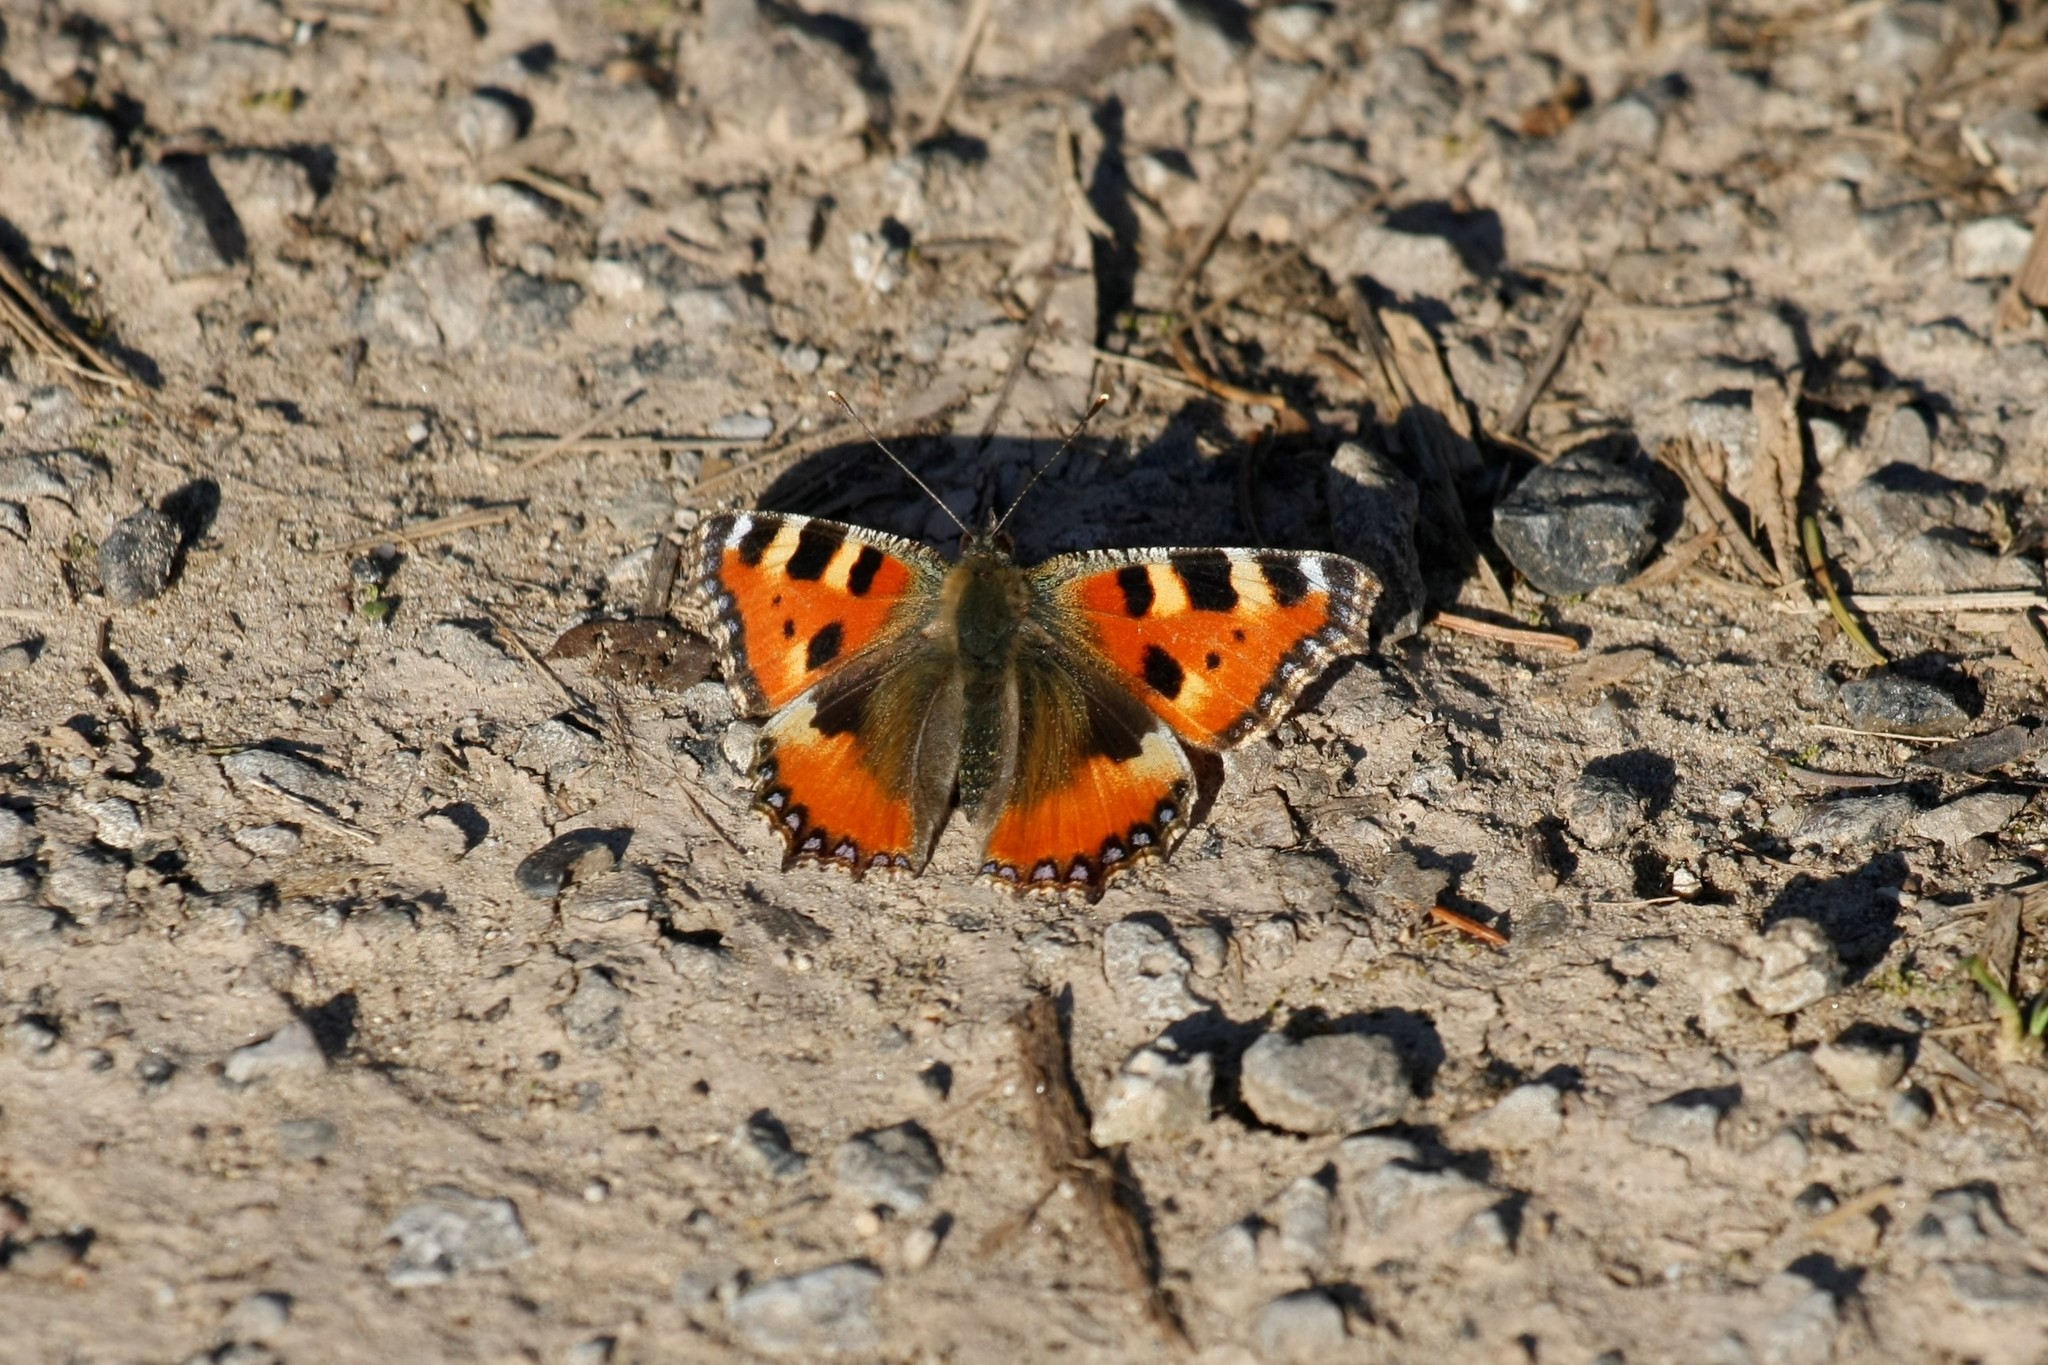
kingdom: Animalia
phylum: Arthropoda
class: Insecta
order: Lepidoptera
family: Nymphalidae
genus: Aglais
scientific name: Aglais urticae
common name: Small tortoiseshell
